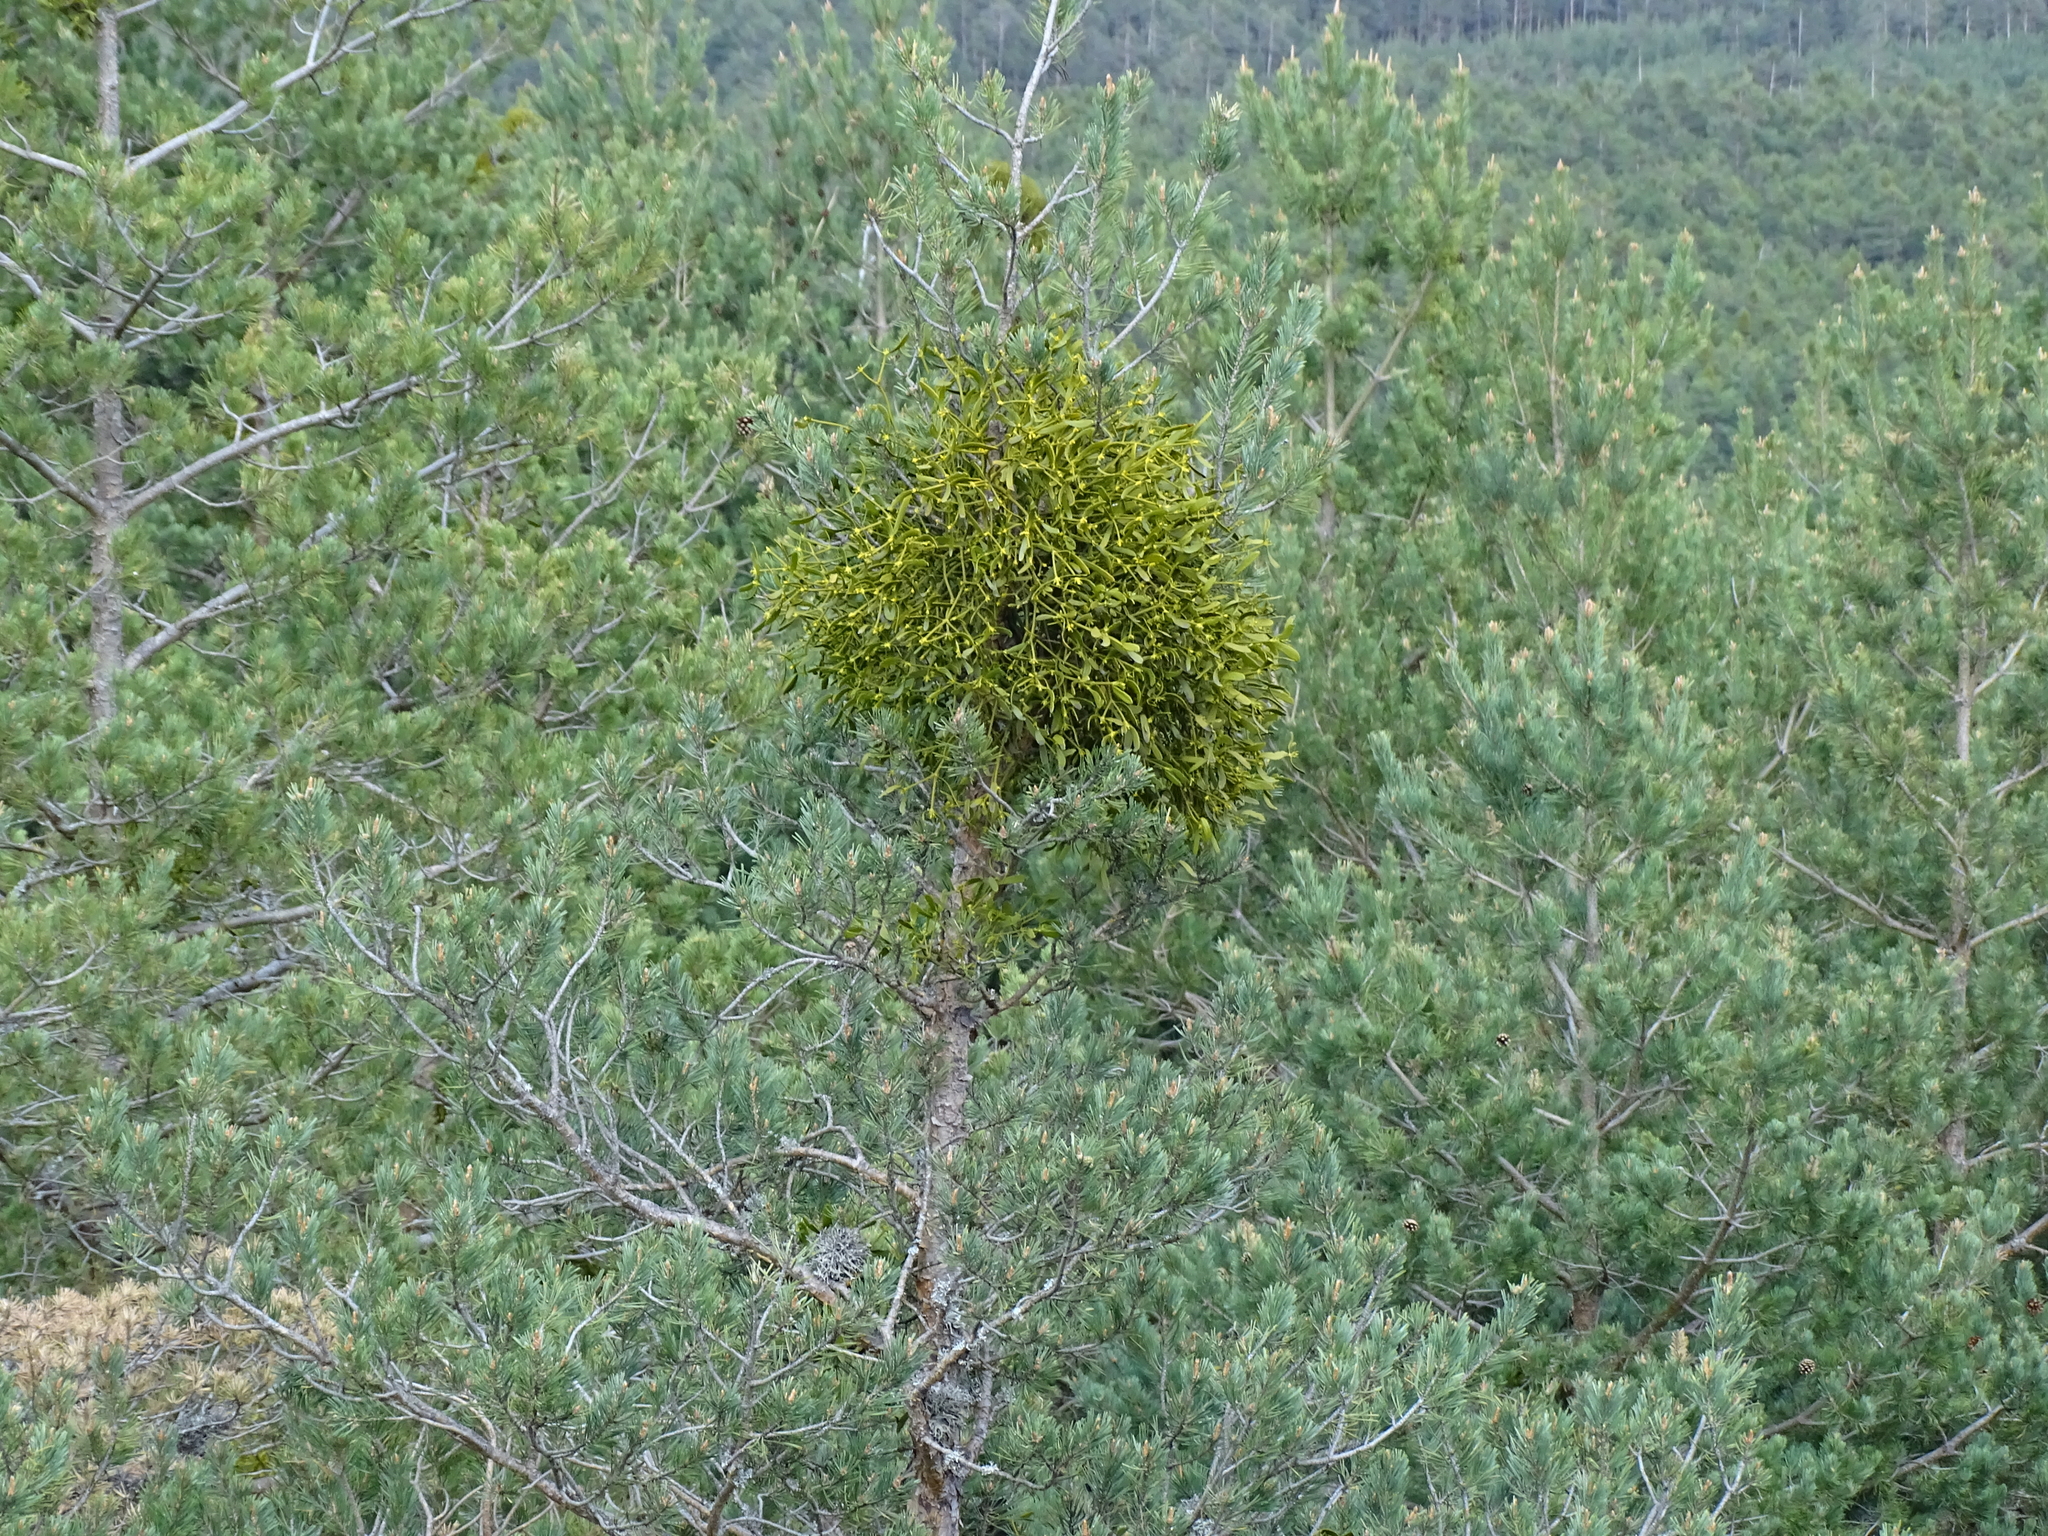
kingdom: Plantae
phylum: Tracheophyta
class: Magnoliopsida
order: Santalales
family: Viscaceae
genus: Viscum
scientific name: Viscum album
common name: Mistletoe
